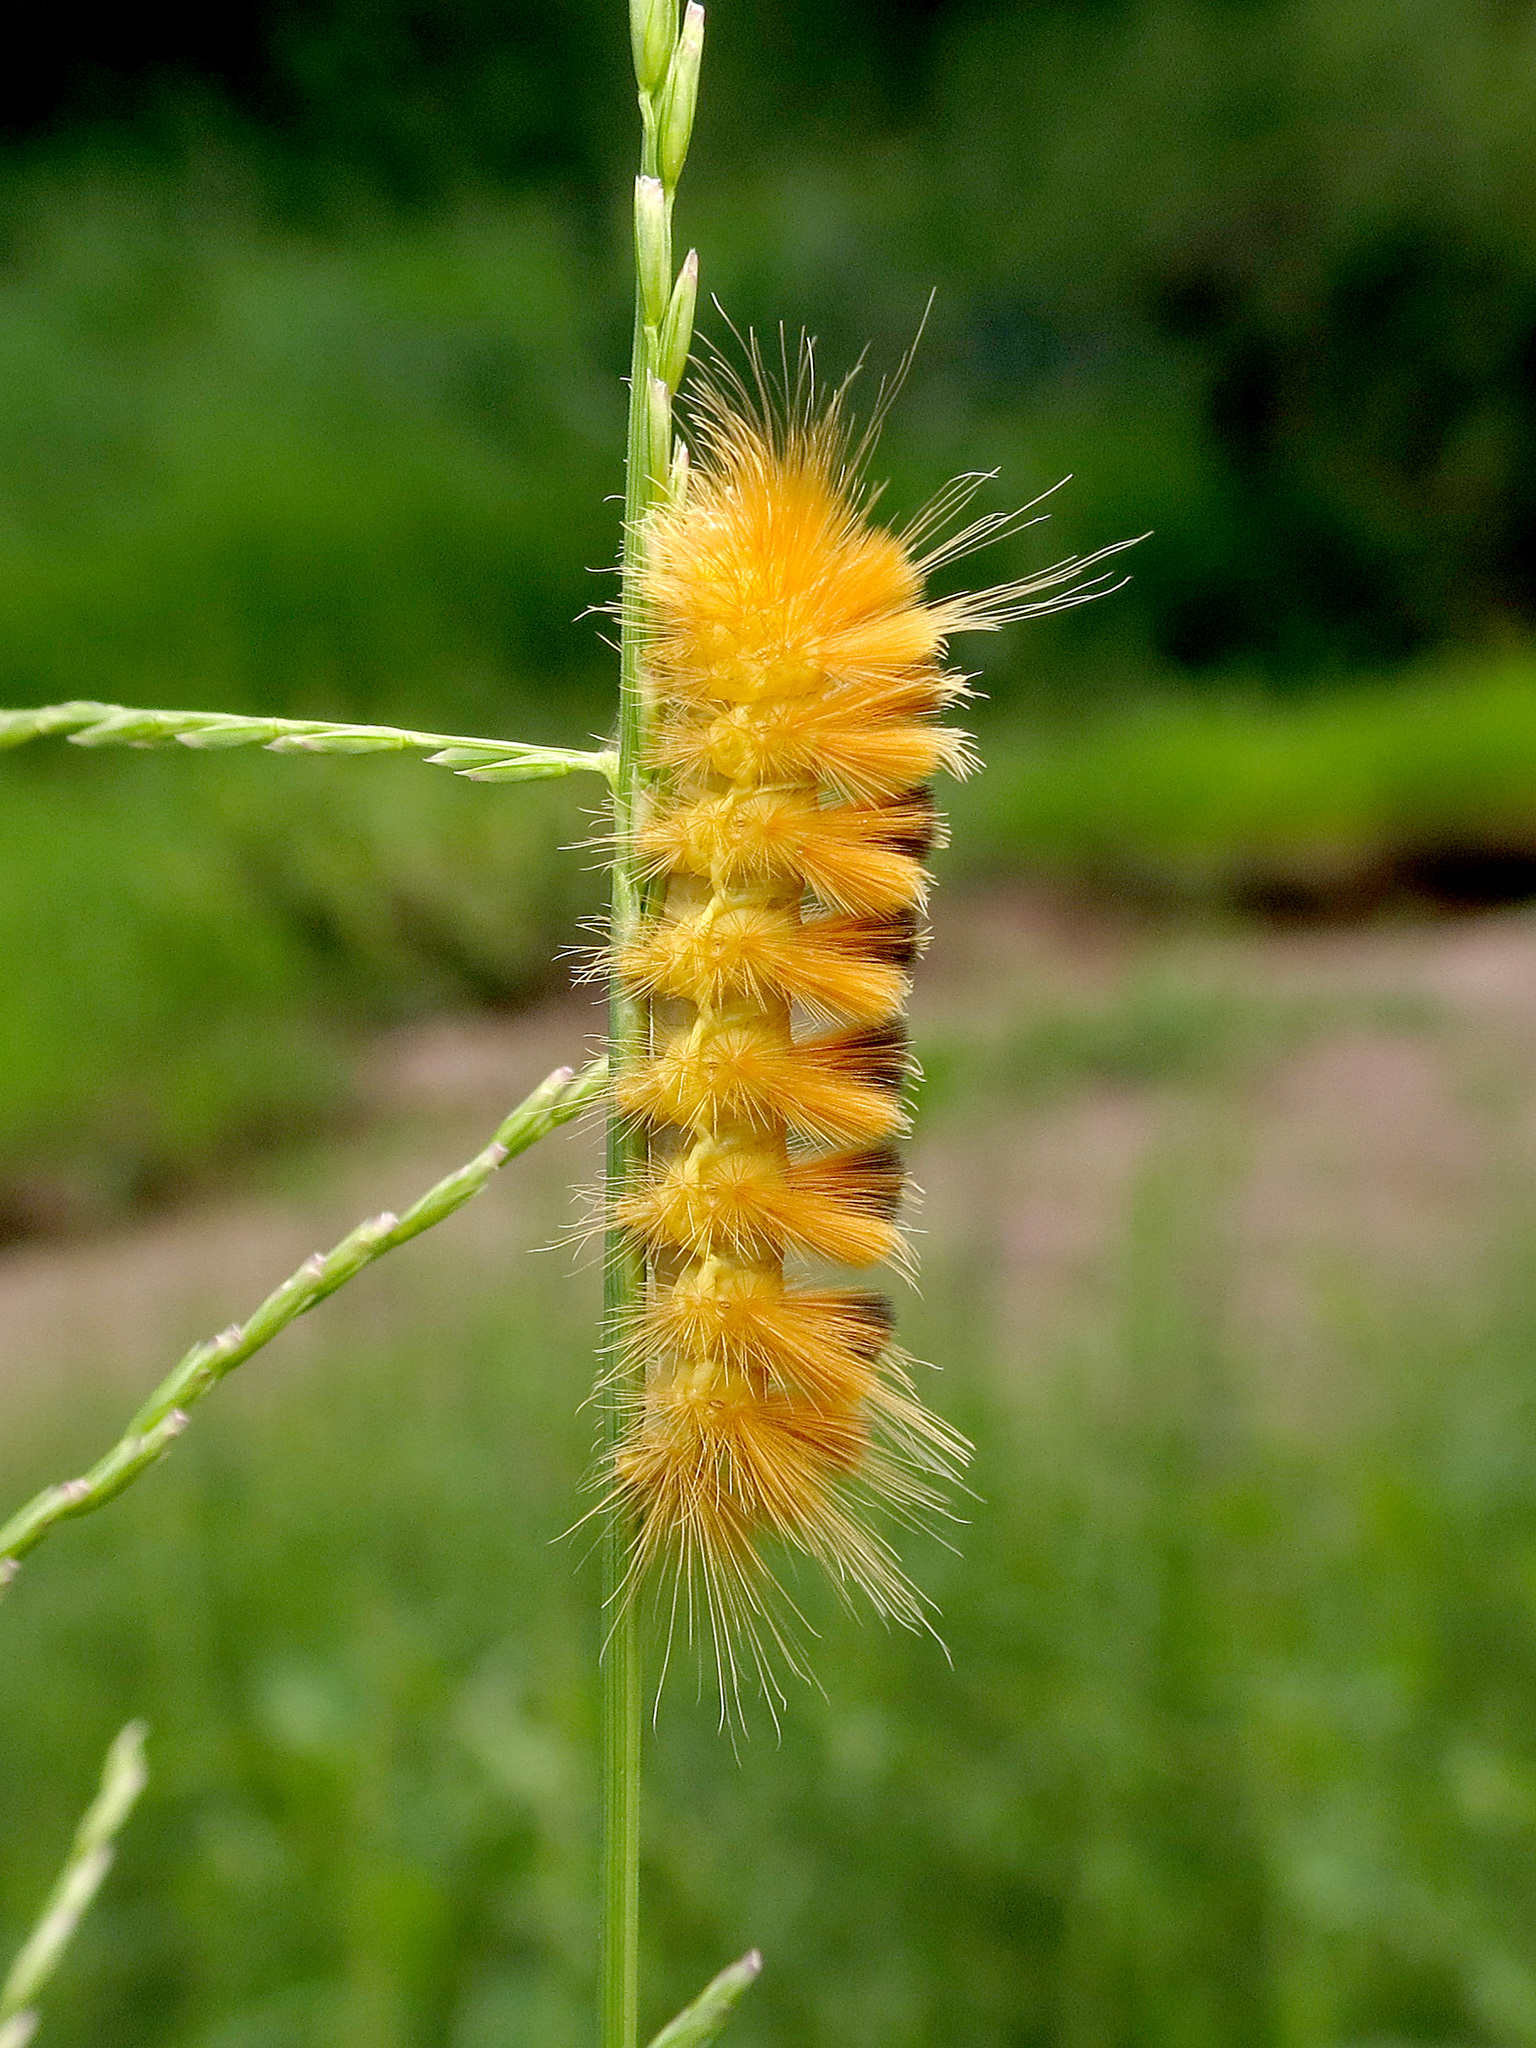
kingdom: Animalia
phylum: Arthropoda
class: Insecta
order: Lepidoptera
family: Erebidae
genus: Pygarctia
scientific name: Pygarctia roseicapitis
